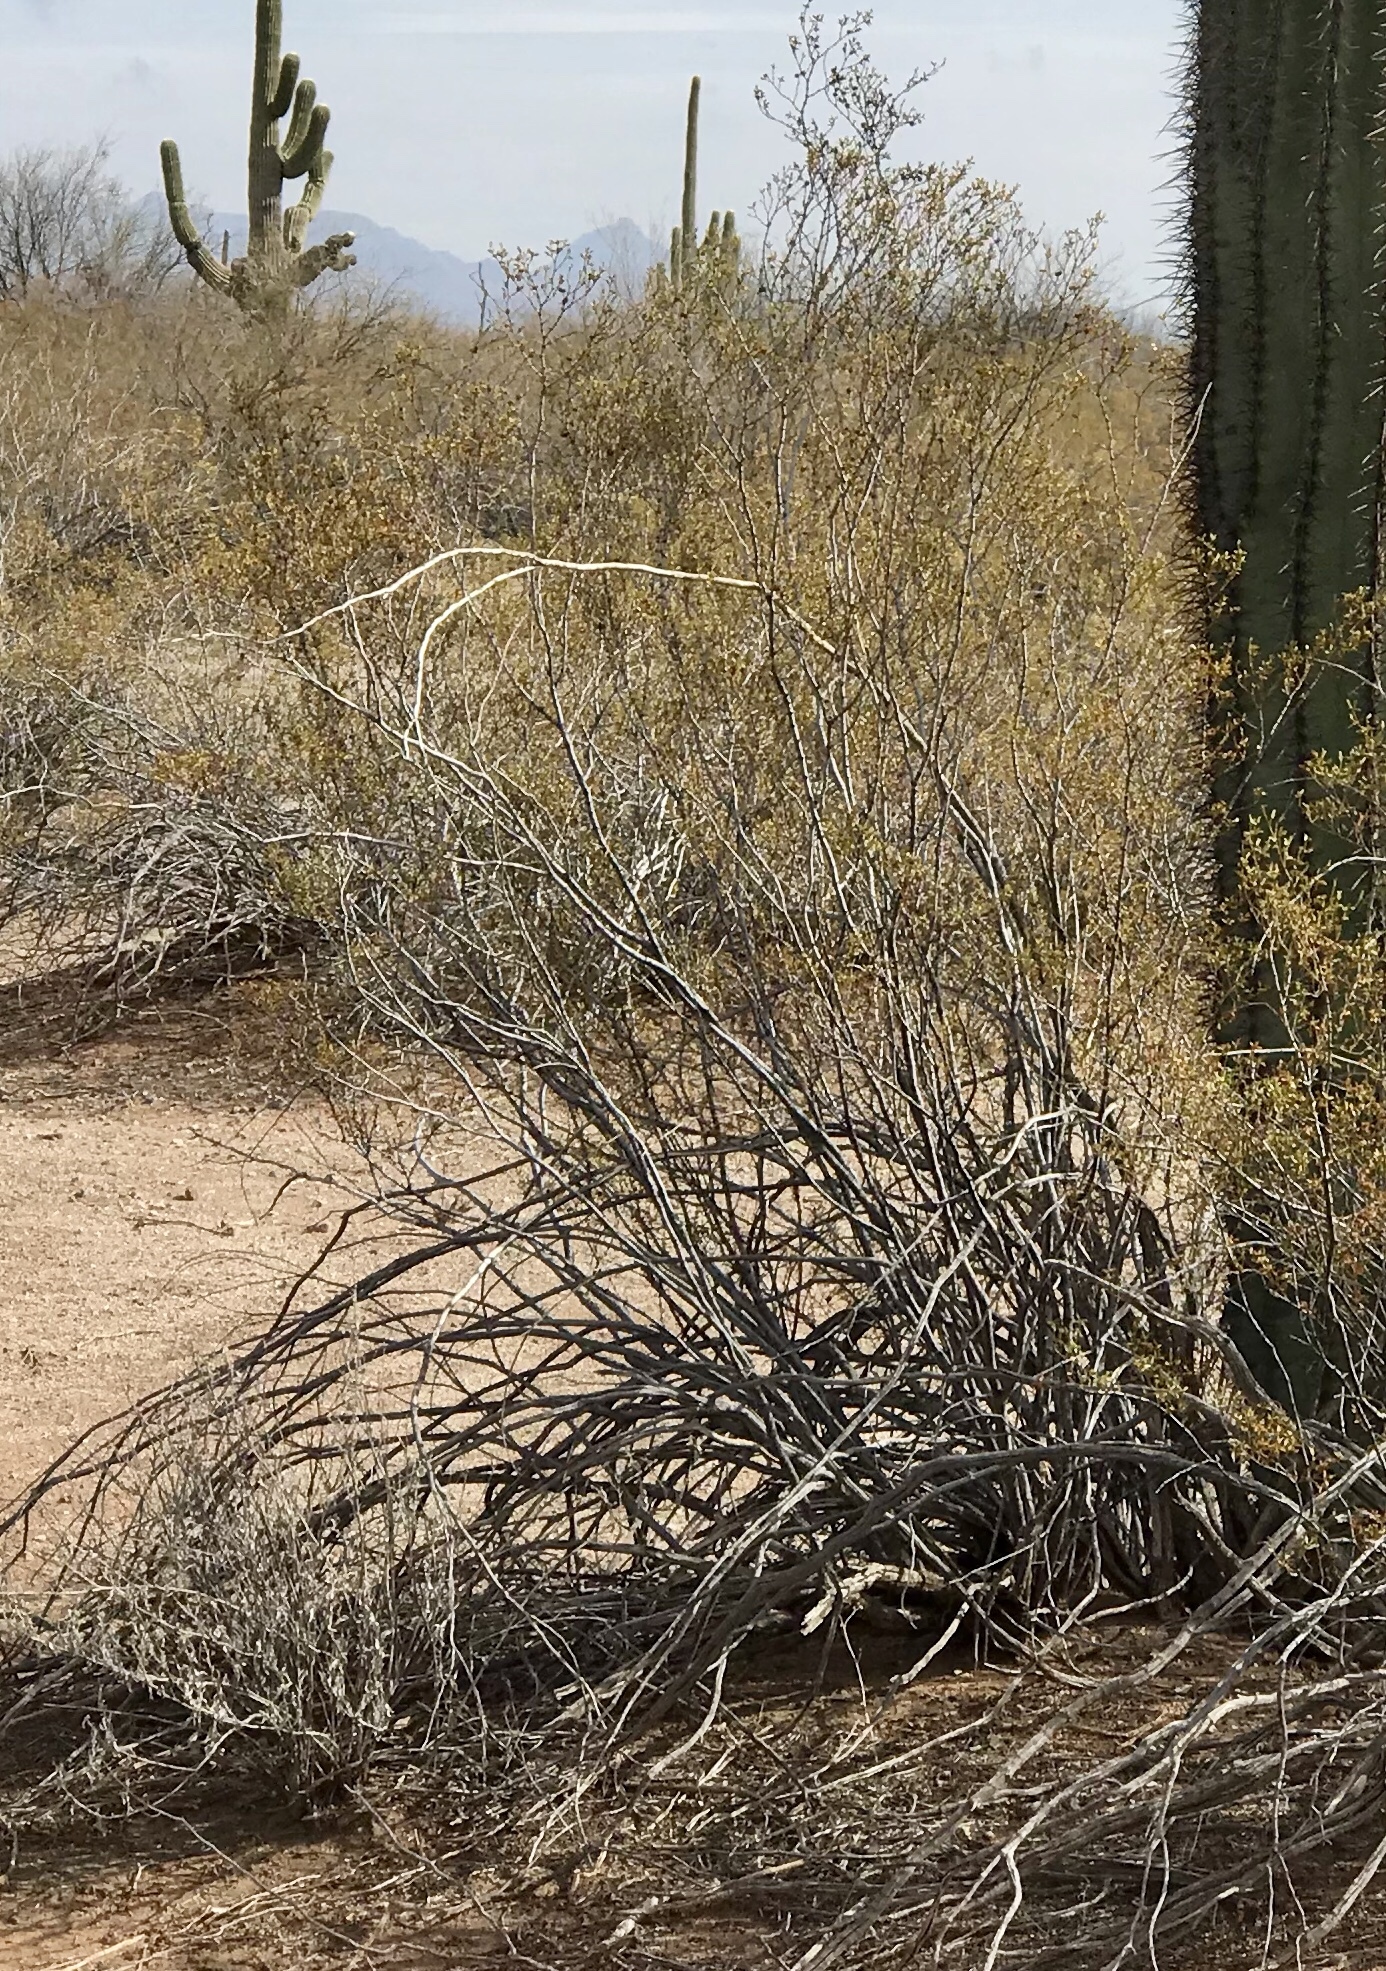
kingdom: Plantae
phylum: Tracheophyta
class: Magnoliopsida
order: Zygophyllales
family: Zygophyllaceae
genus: Larrea
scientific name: Larrea tridentata
